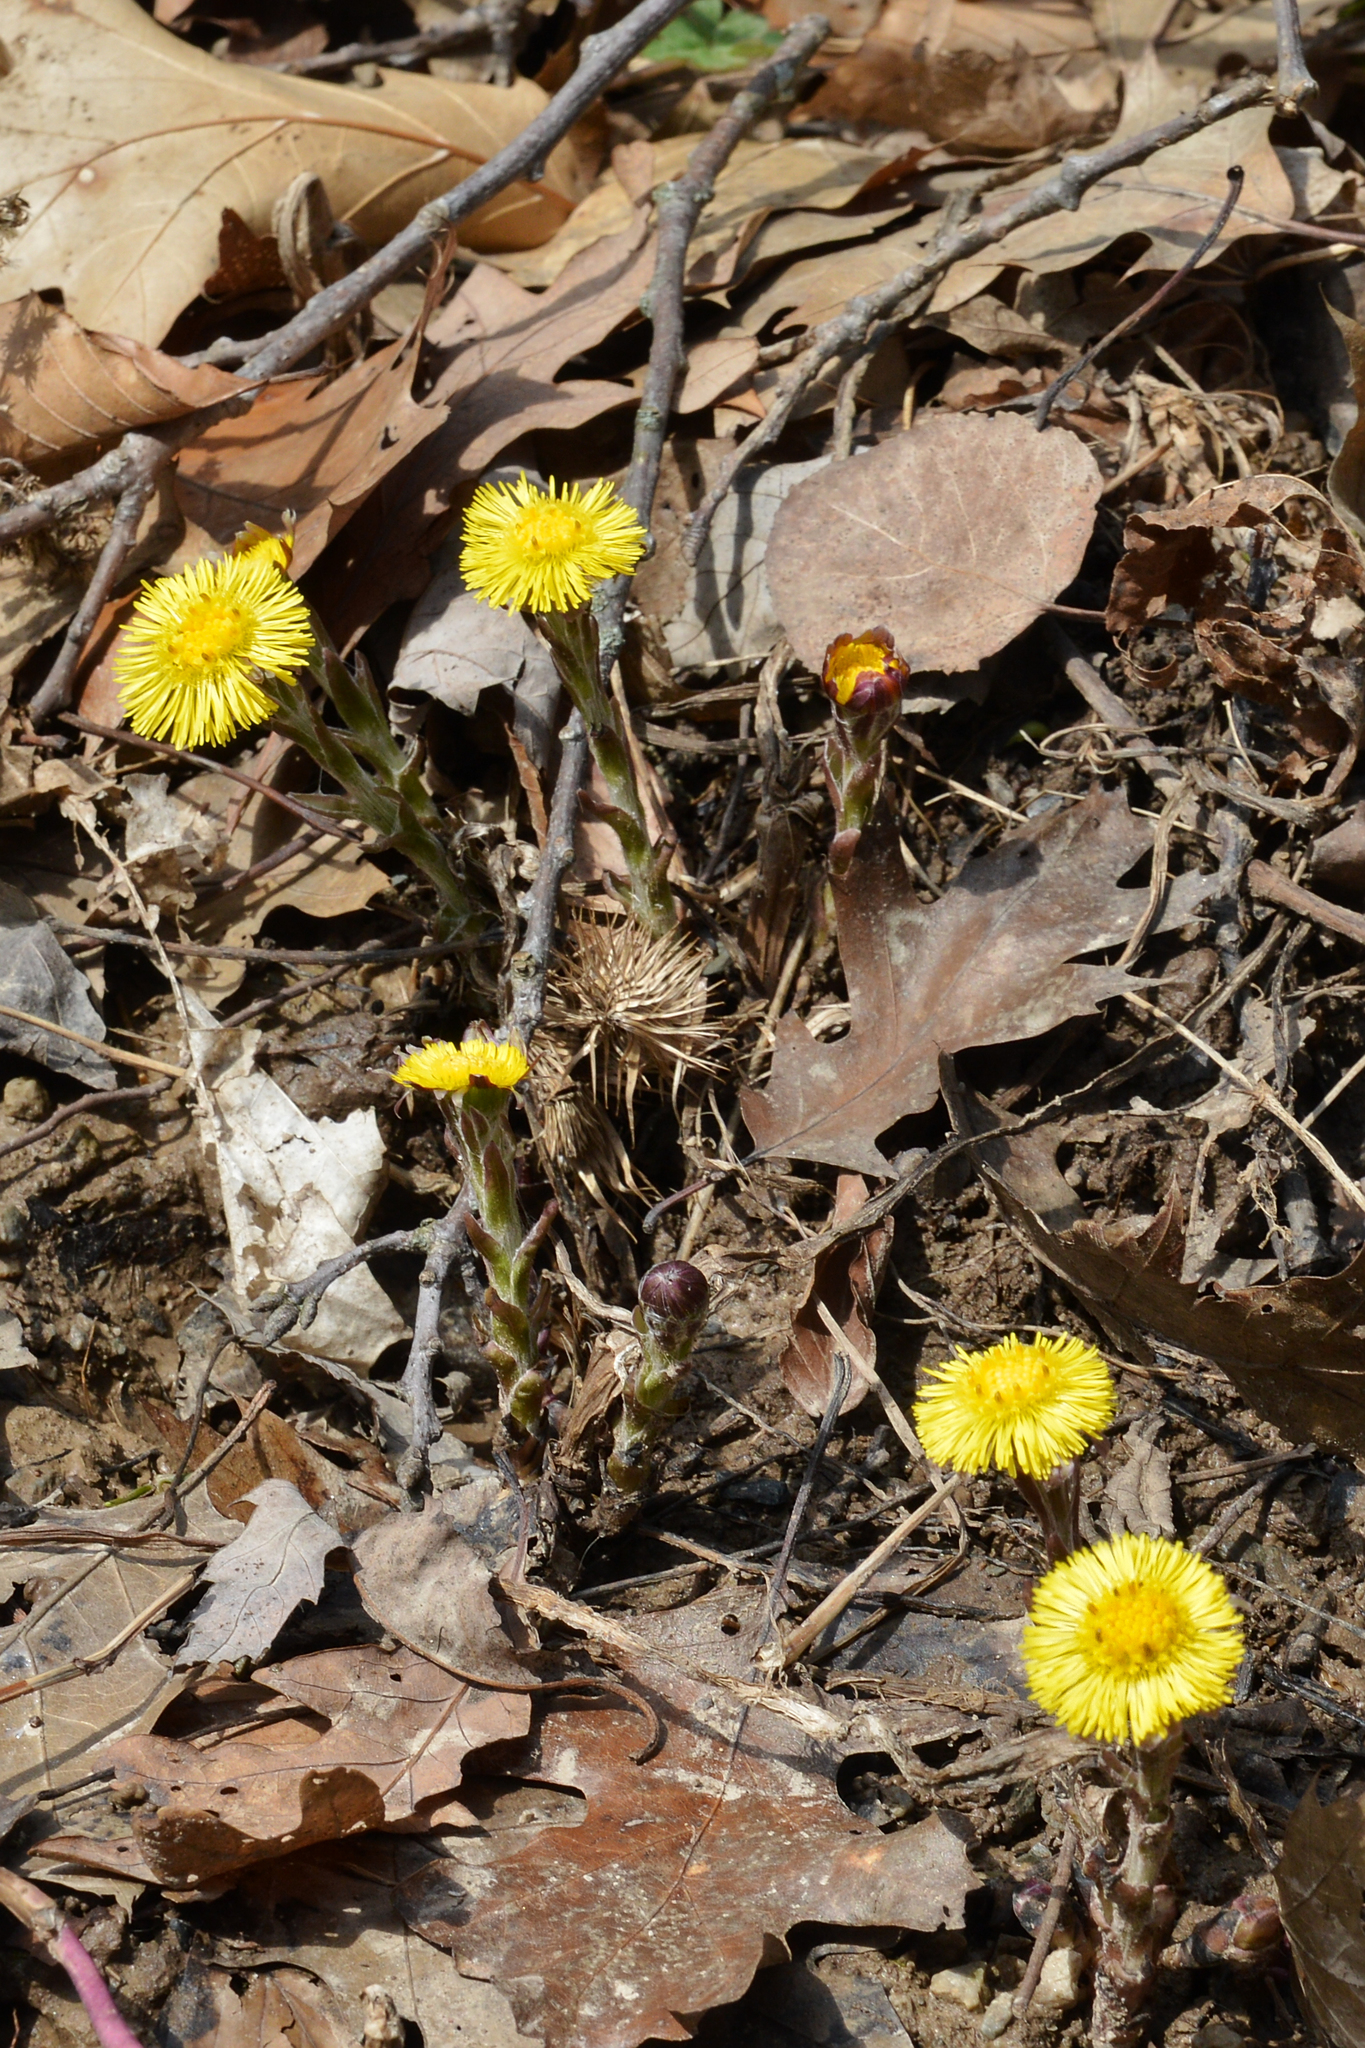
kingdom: Plantae
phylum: Tracheophyta
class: Magnoliopsida
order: Asterales
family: Asteraceae
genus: Tussilago
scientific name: Tussilago farfara
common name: Coltsfoot
